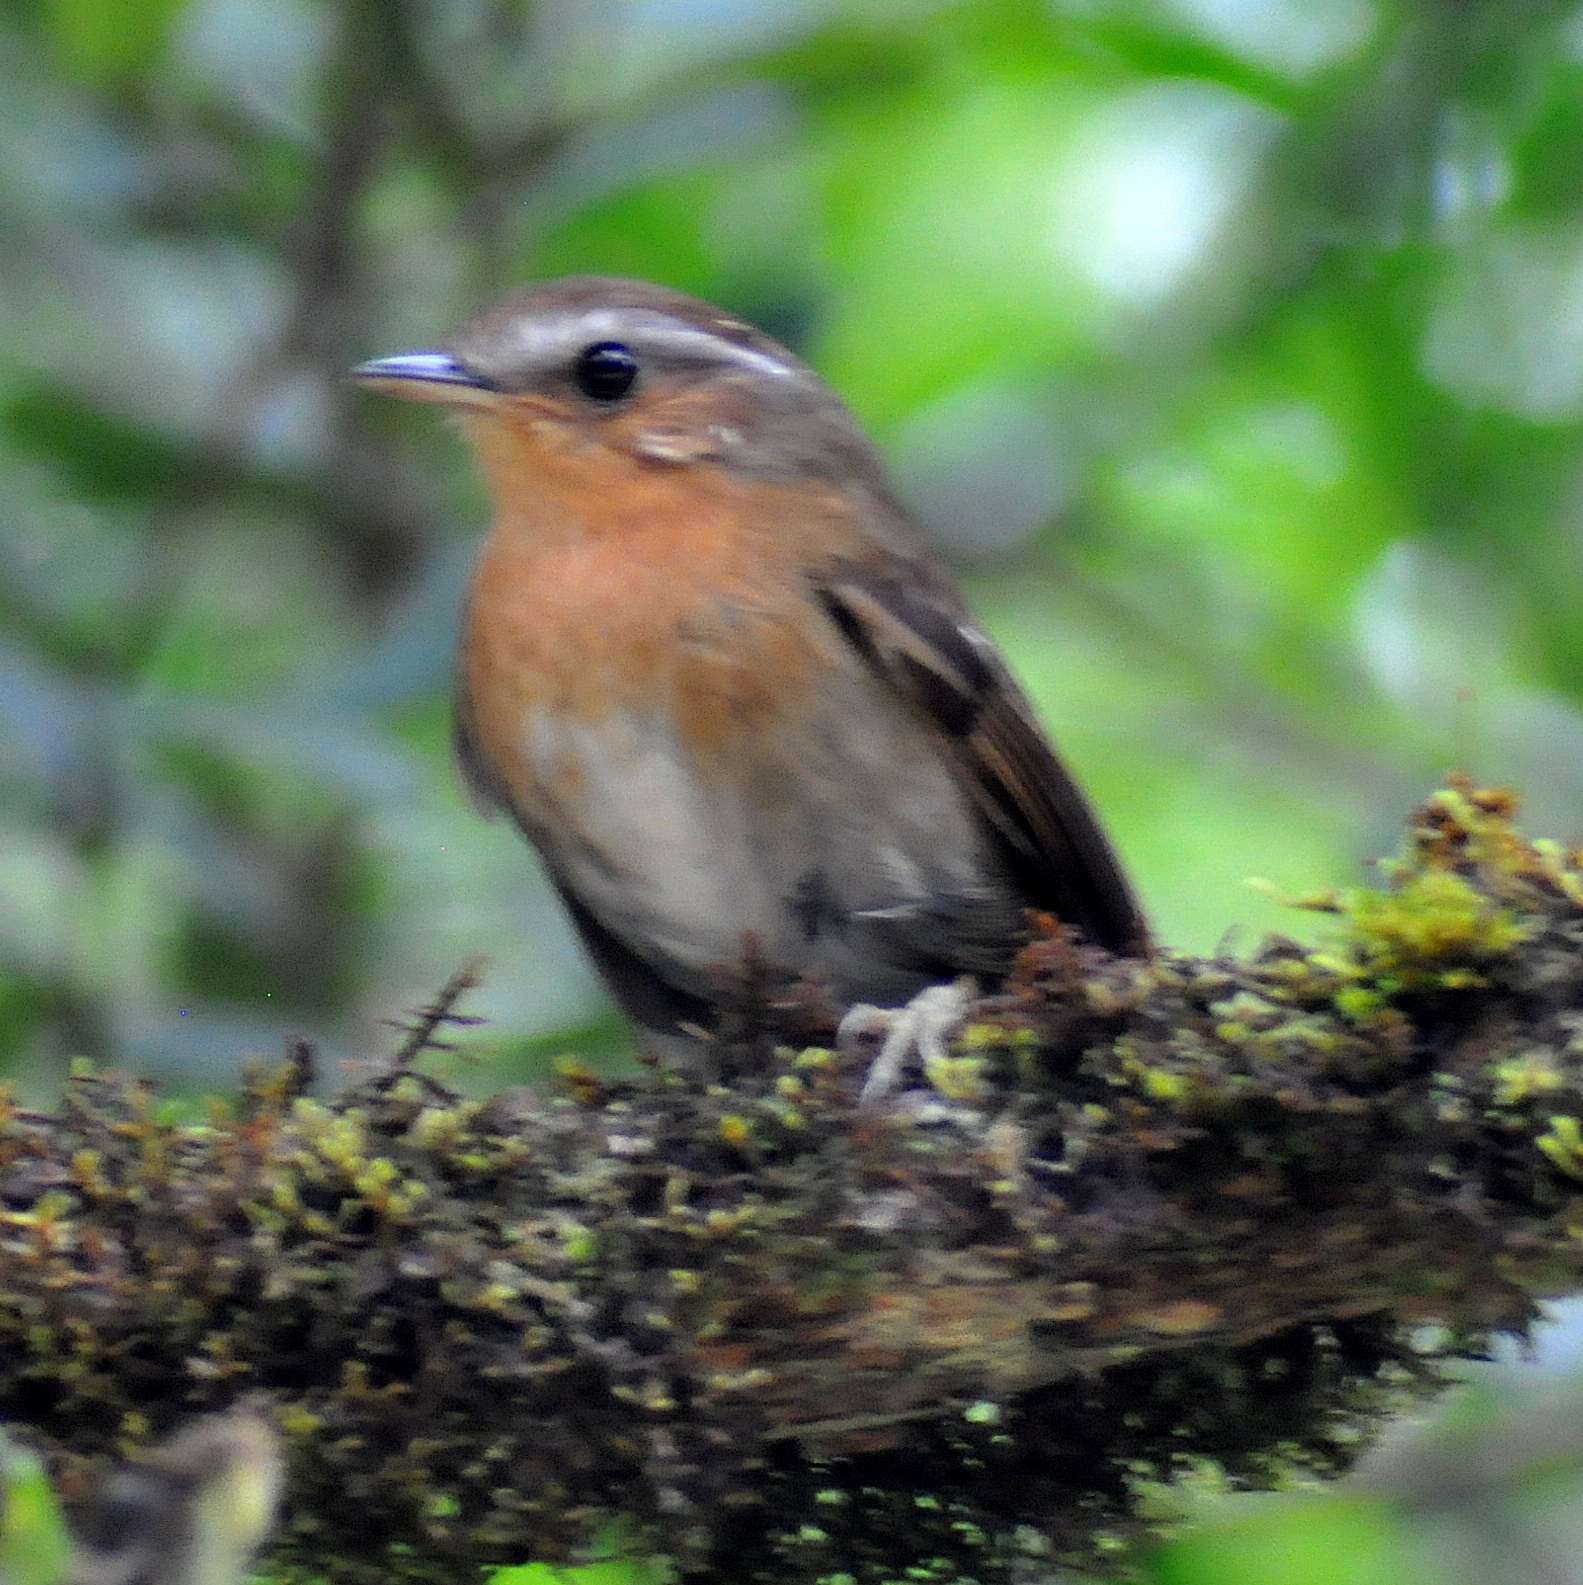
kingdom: Animalia
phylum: Chordata
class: Aves
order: Passeriformes
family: Conopophagidae
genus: Conopophaga
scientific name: Conopophaga lineata
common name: Rufous gnateater
